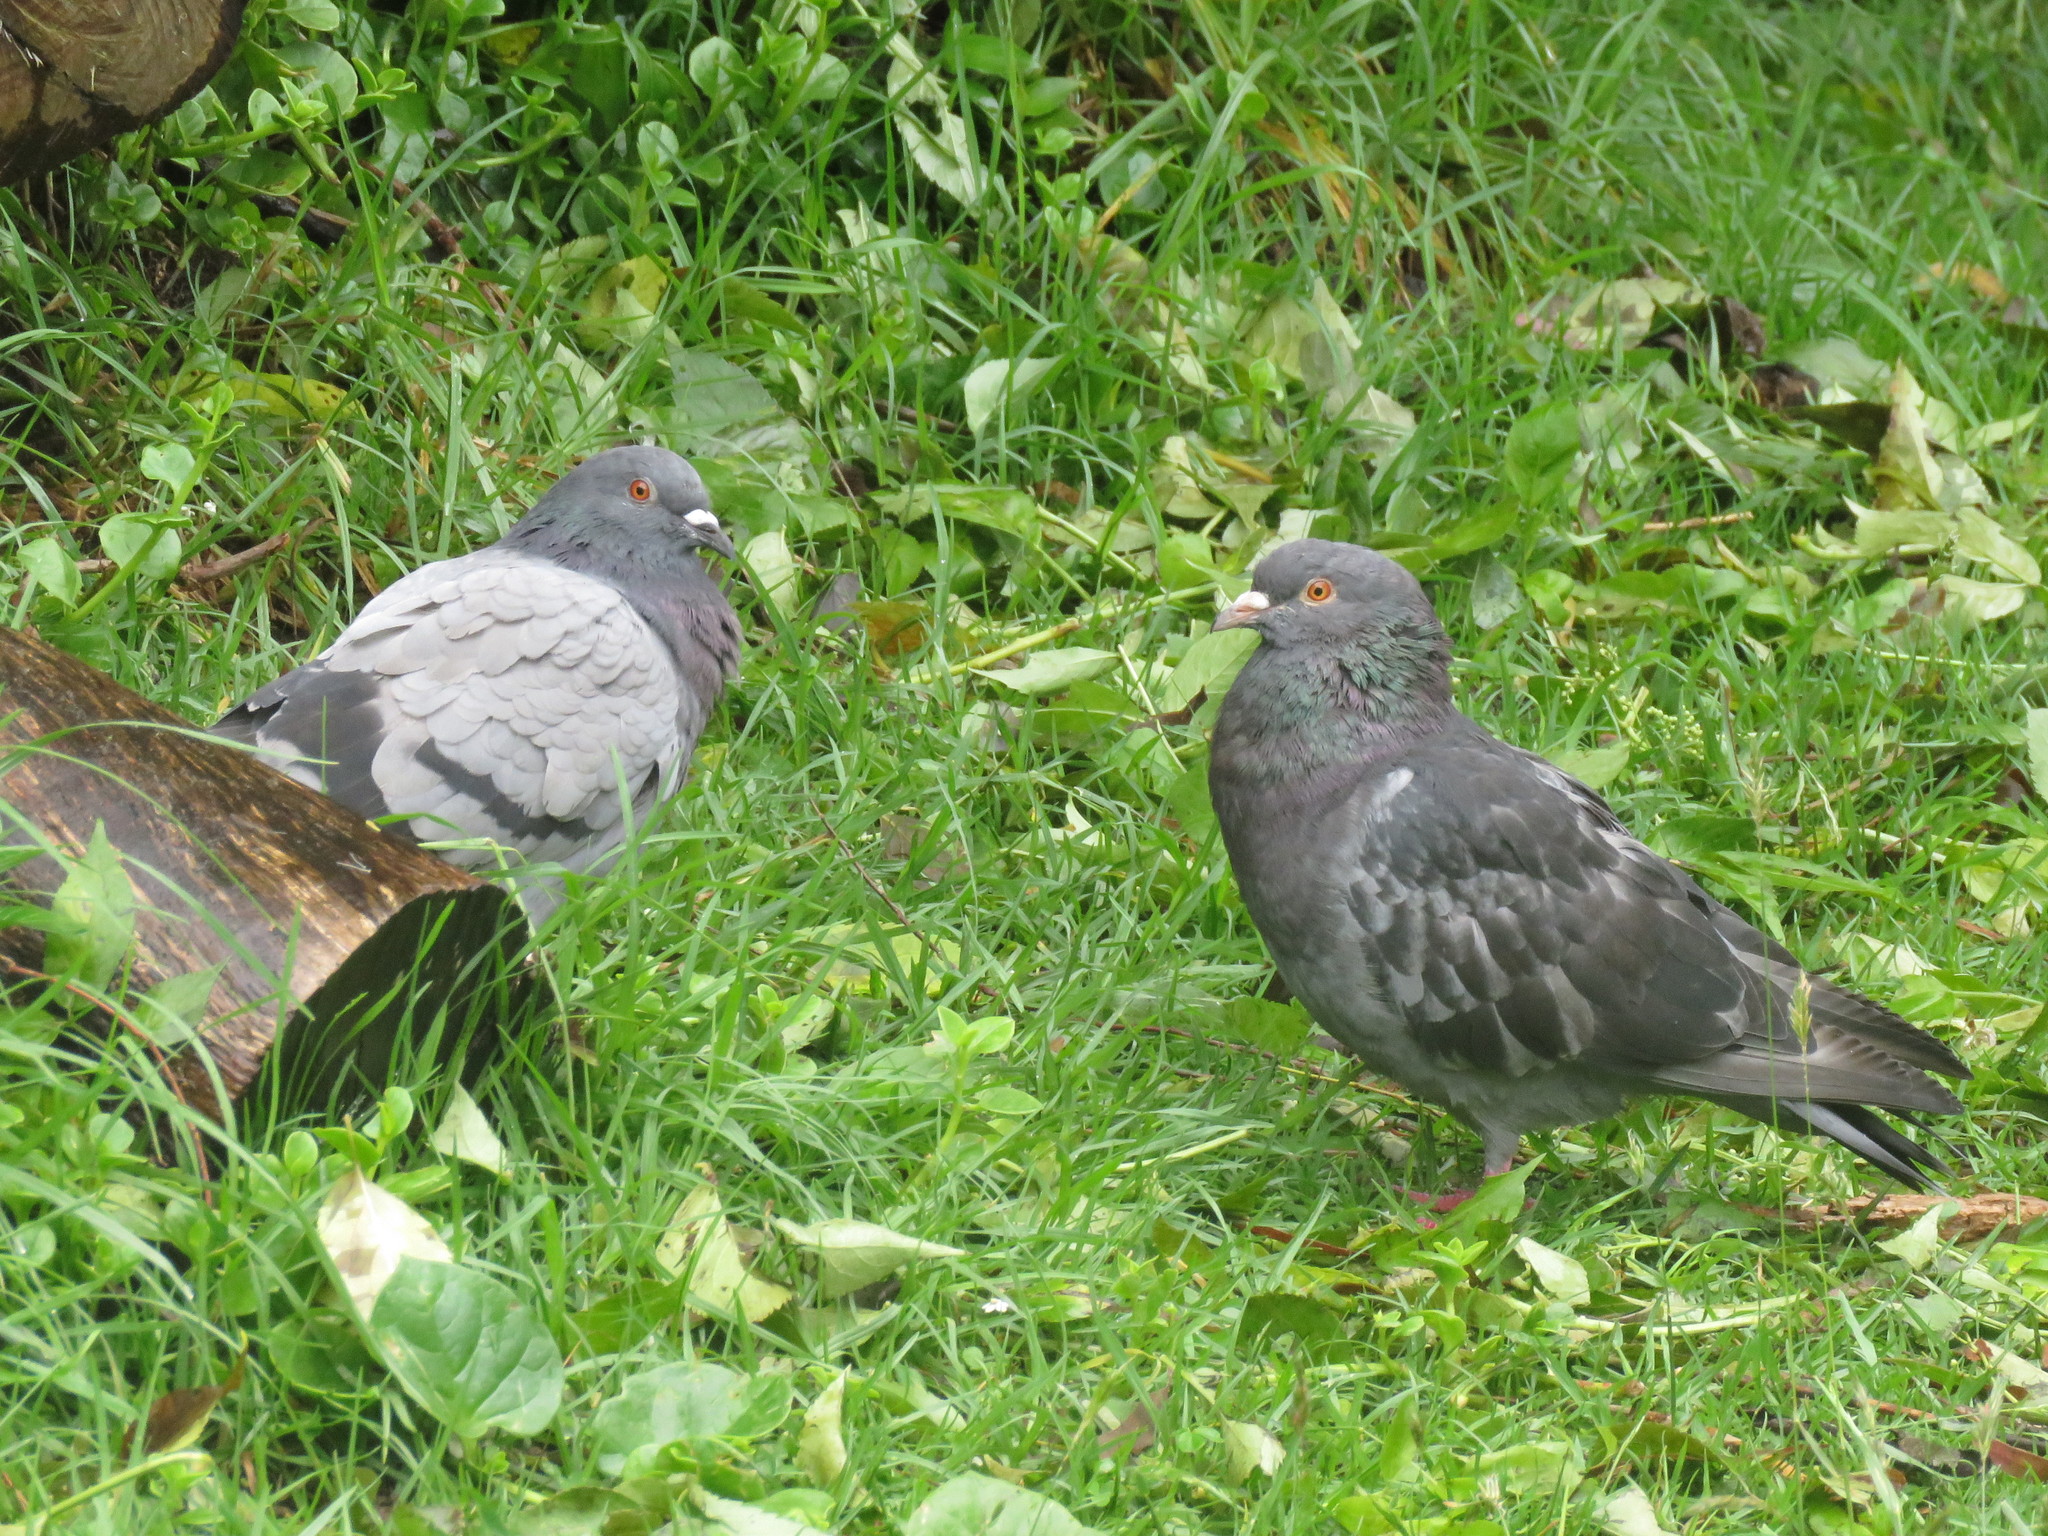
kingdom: Animalia
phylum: Chordata
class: Aves
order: Columbiformes
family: Columbidae
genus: Columba
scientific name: Columba livia
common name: Rock pigeon
